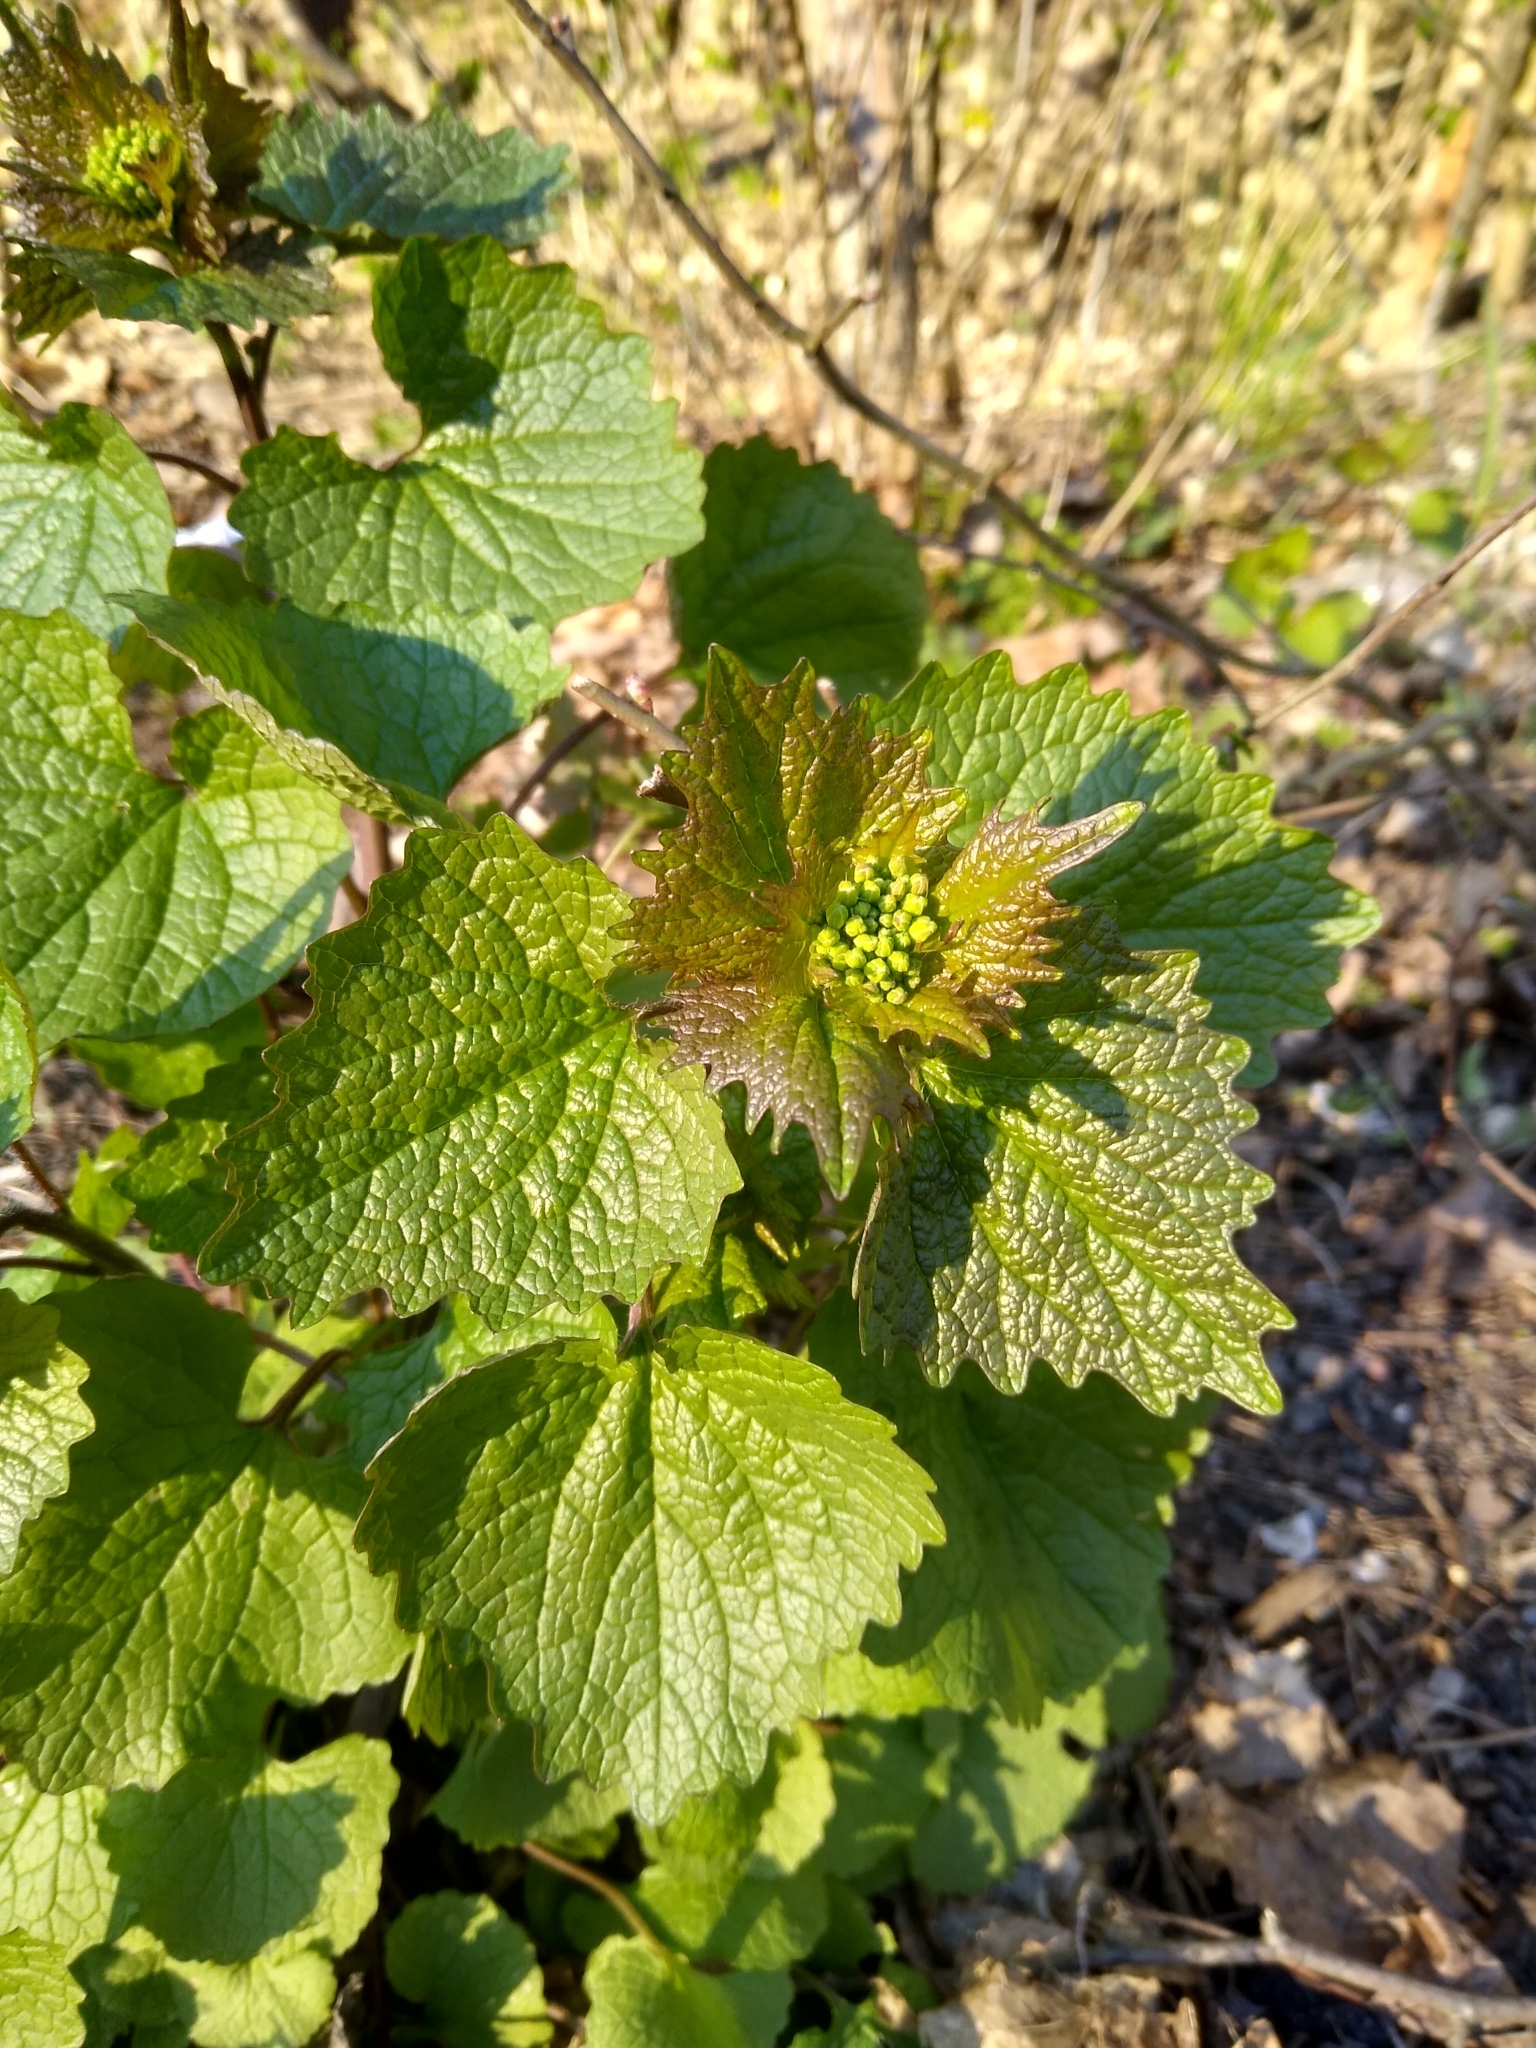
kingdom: Plantae
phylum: Tracheophyta
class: Magnoliopsida
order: Brassicales
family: Brassicaceae
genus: Alliaria
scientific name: Alliaria petiolata
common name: Garlic mustard
